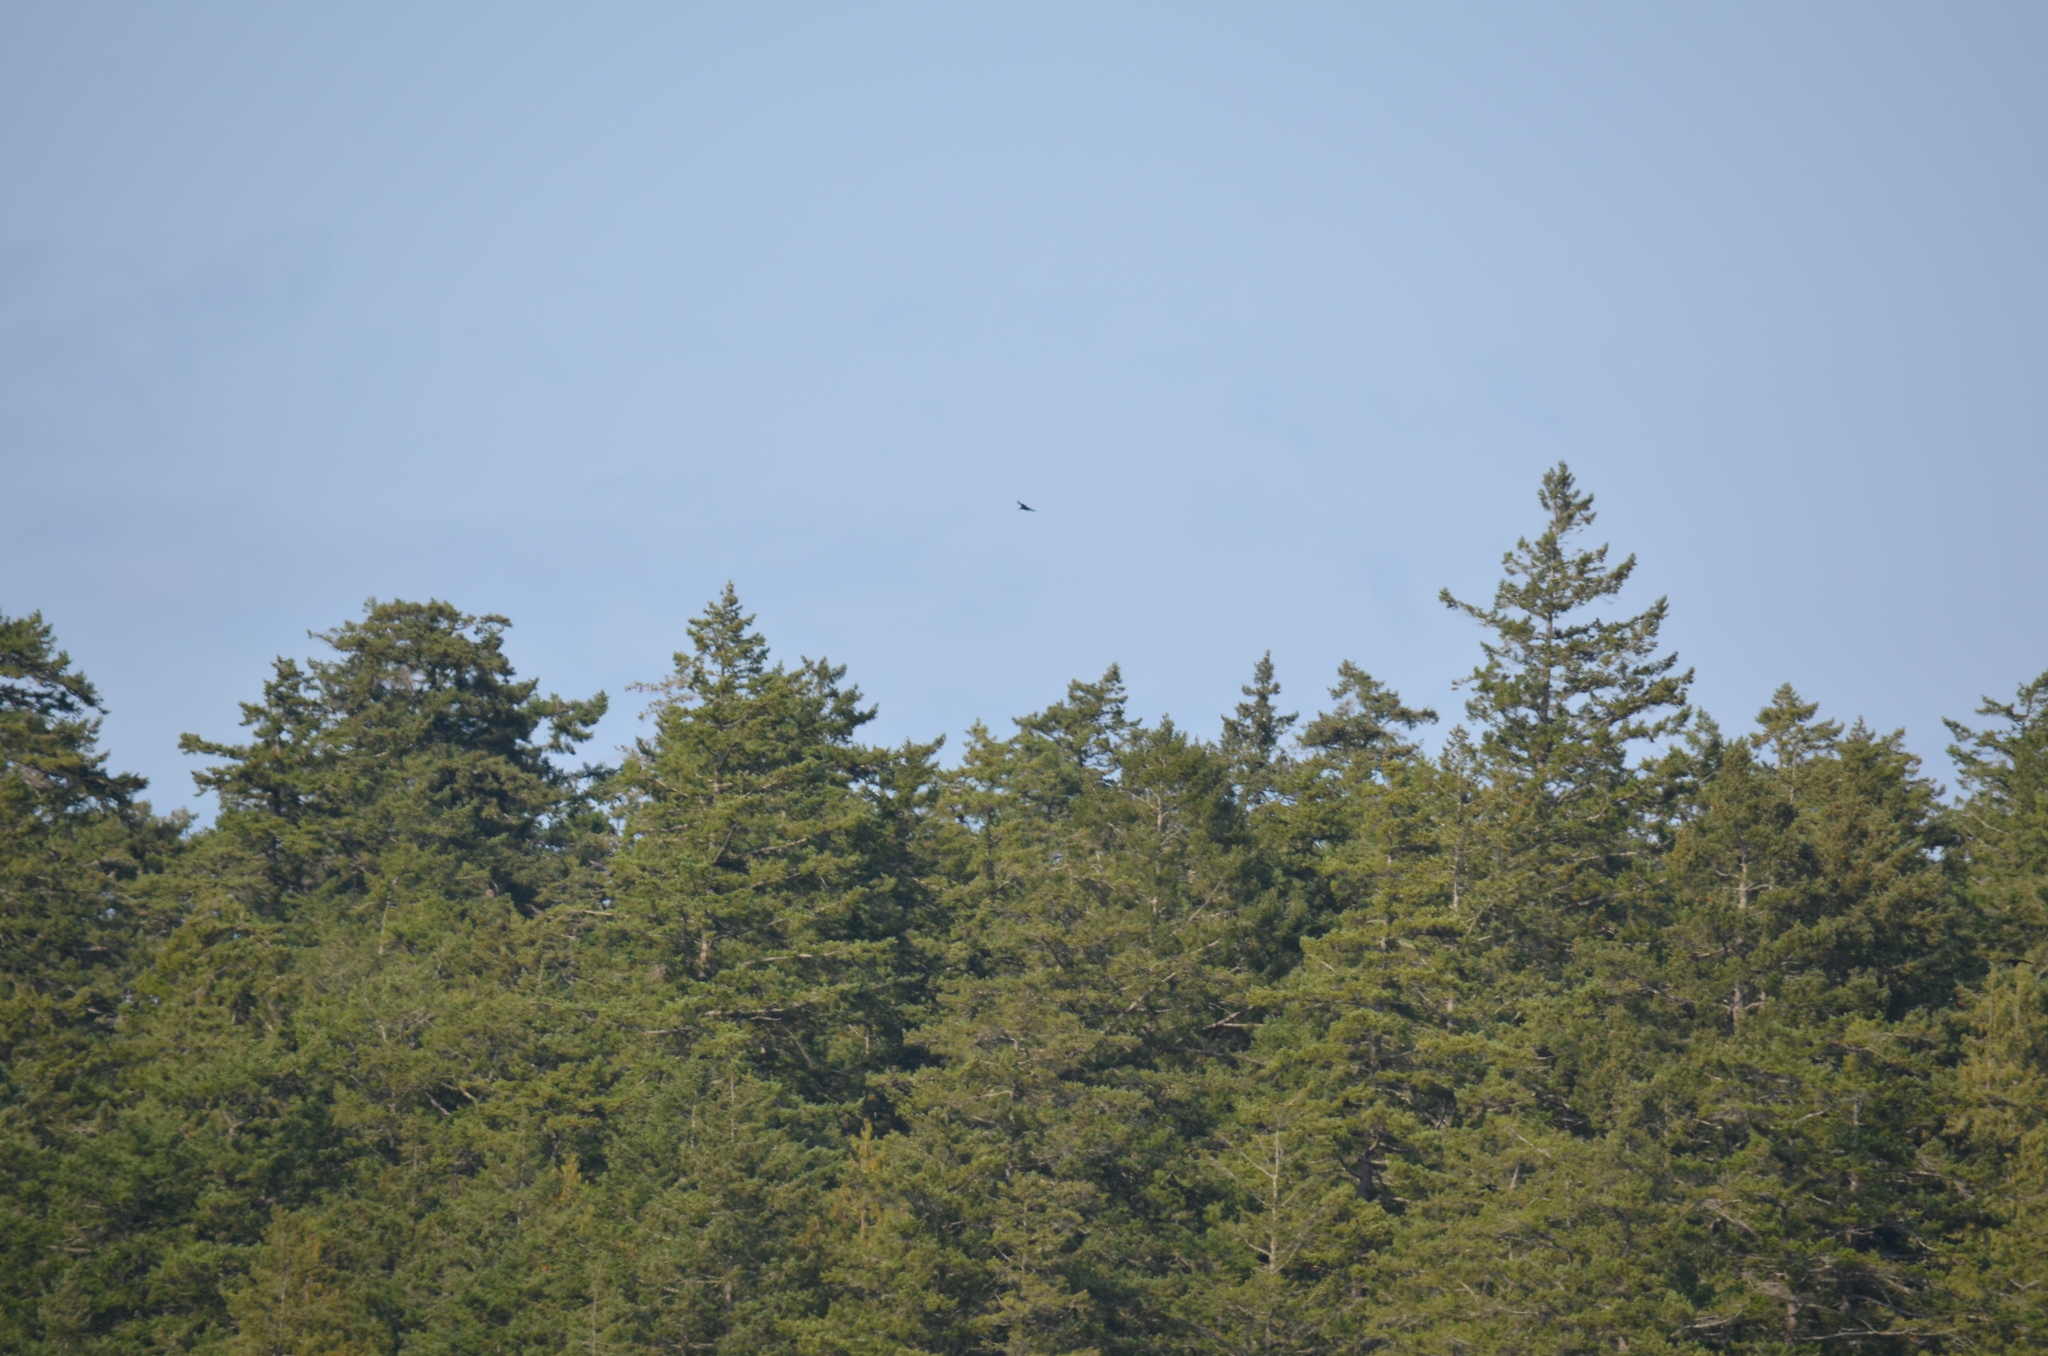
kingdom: Animalia
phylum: Chordata
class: Aves
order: Accipitriformes
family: Cathartidae
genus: Cathartes
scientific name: Cathartes aura
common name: Turkey vulture
